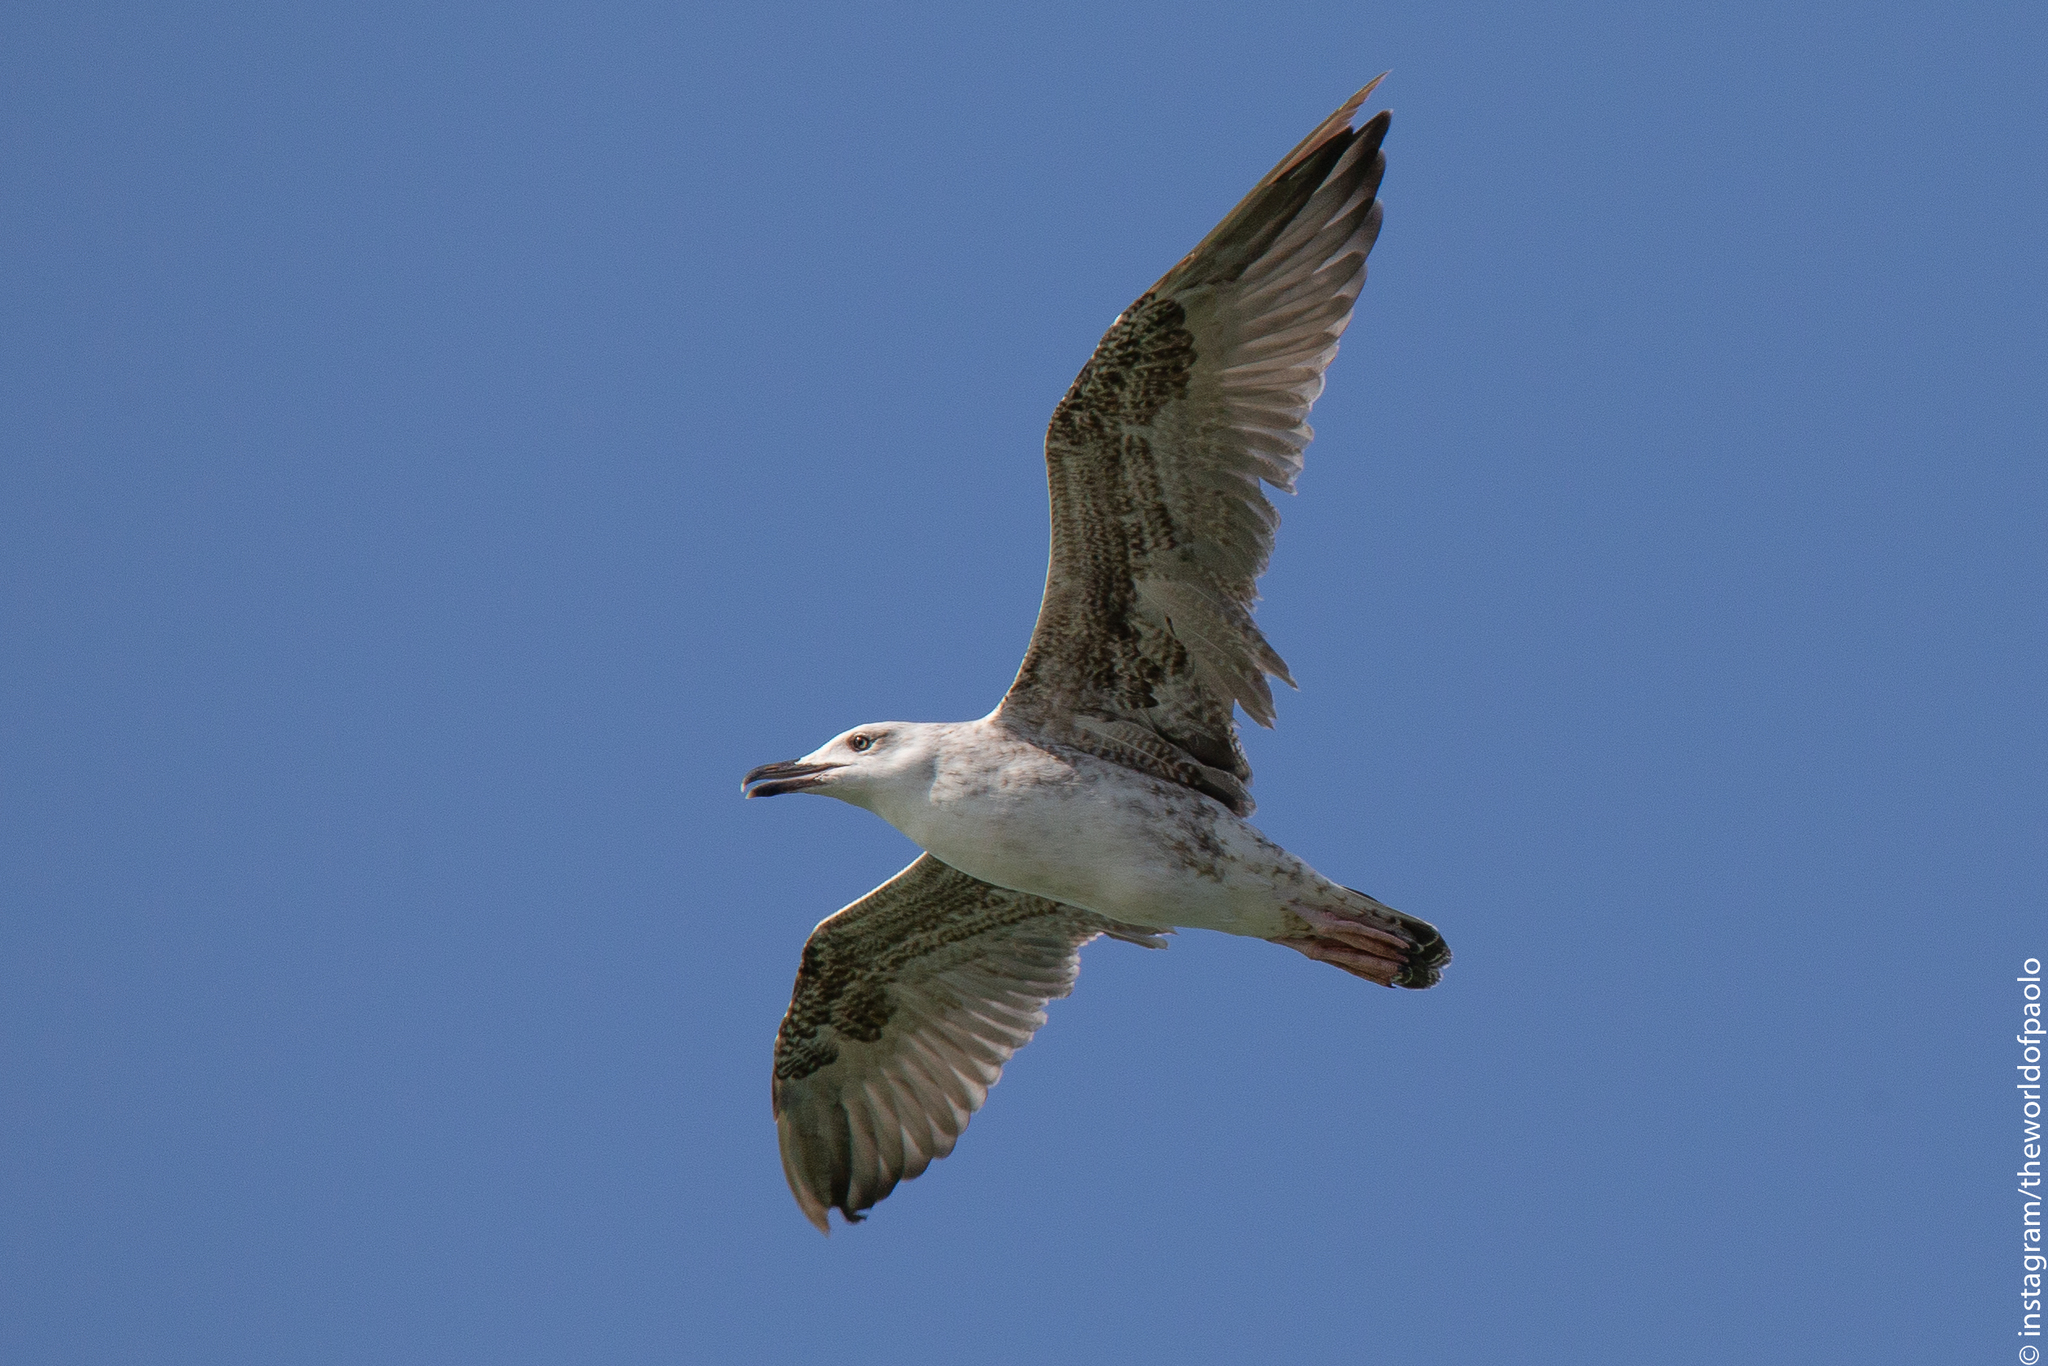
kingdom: Animalia
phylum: Chordata
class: Aves
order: Charadriiformes
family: Laridae
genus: Larus
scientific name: Larus michahellis
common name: Yellow-legged gull
